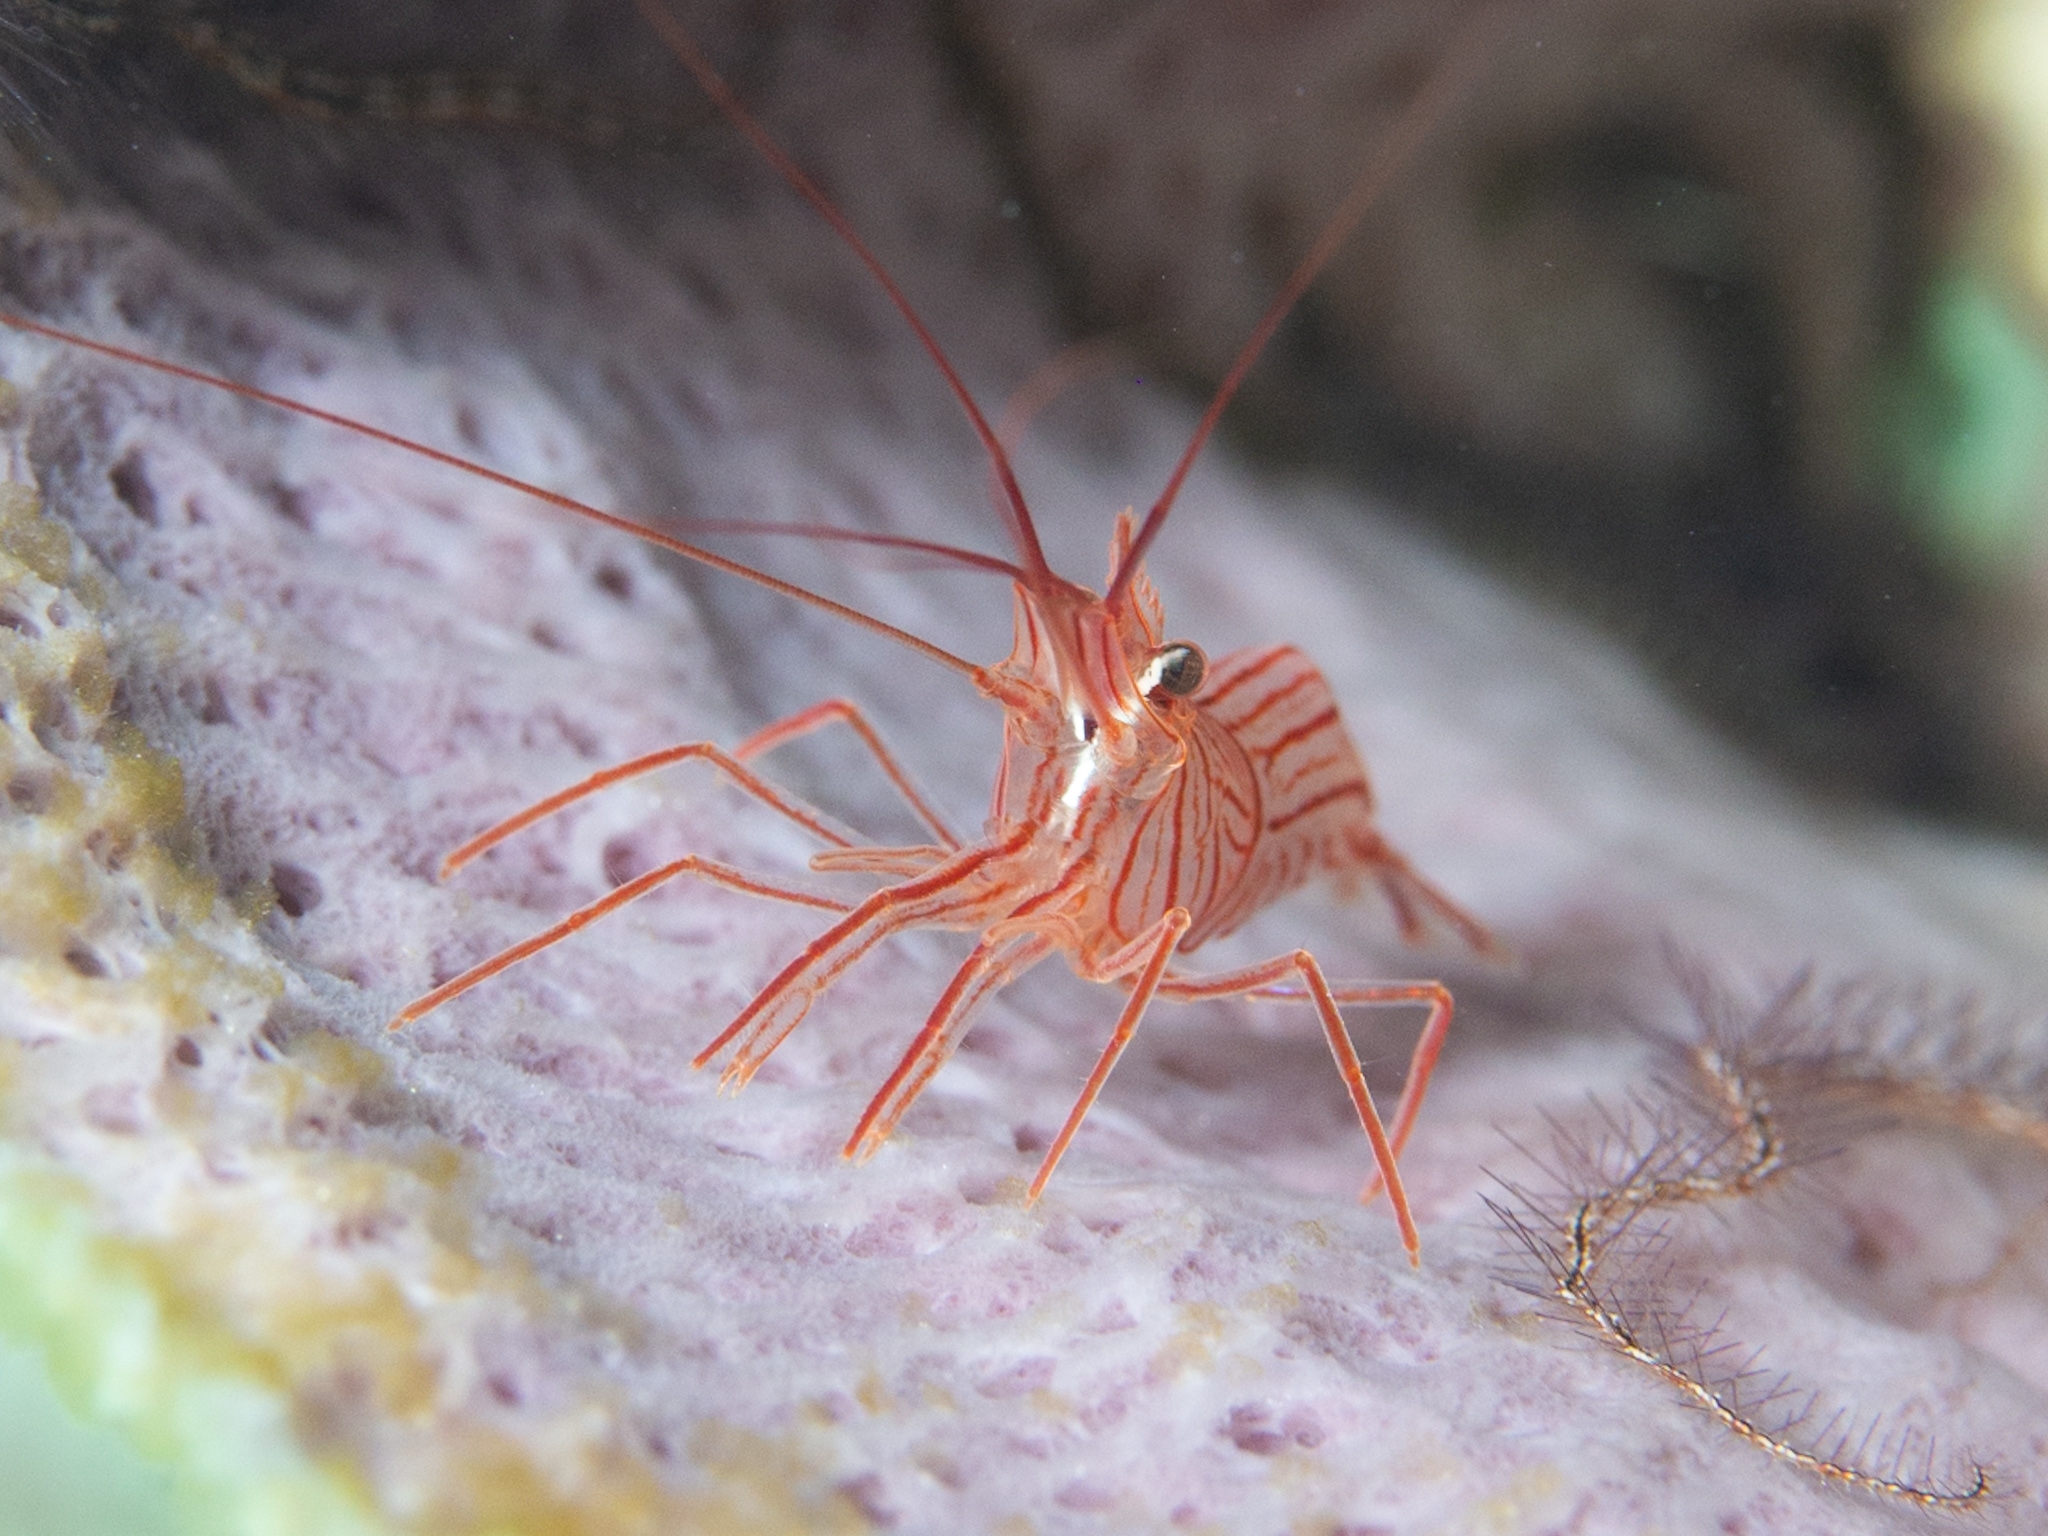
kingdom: Animalia
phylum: Arthropoda
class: Malacostraca
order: Decapoda
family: Lysmatidae
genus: Lysmata
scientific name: Lysmata pederseni
